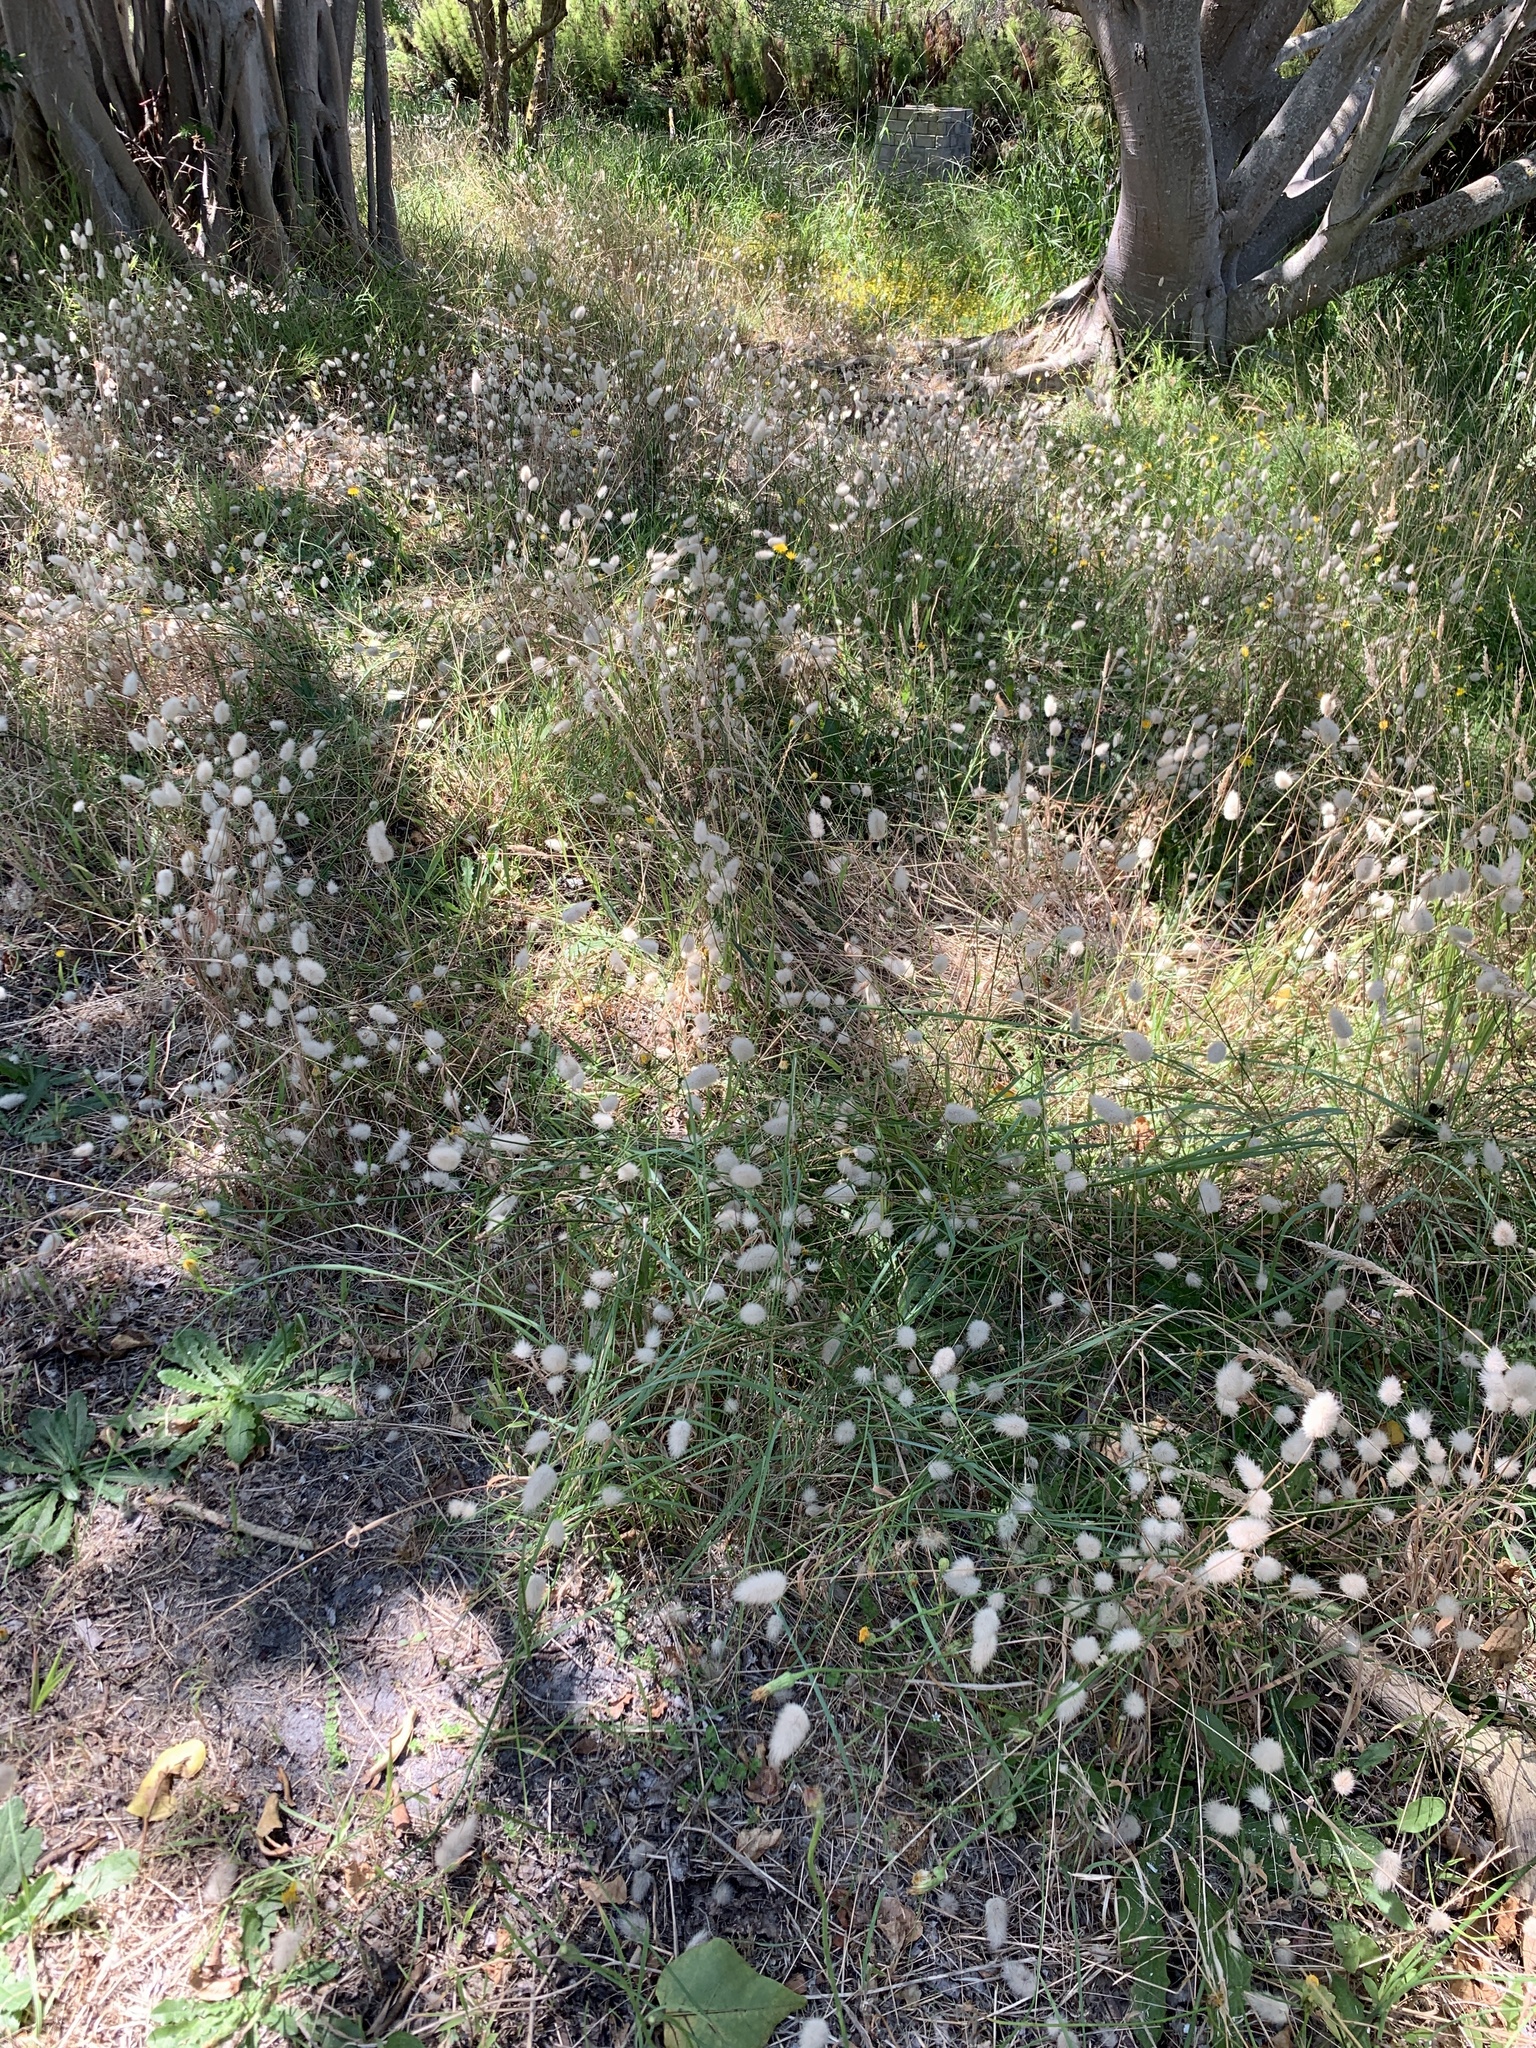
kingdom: Plantae
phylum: Tracheophyta
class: Liliopsida
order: Poales
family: Poaceae
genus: Lagurus
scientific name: Lagurus ovatus
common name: Hare's-tail
